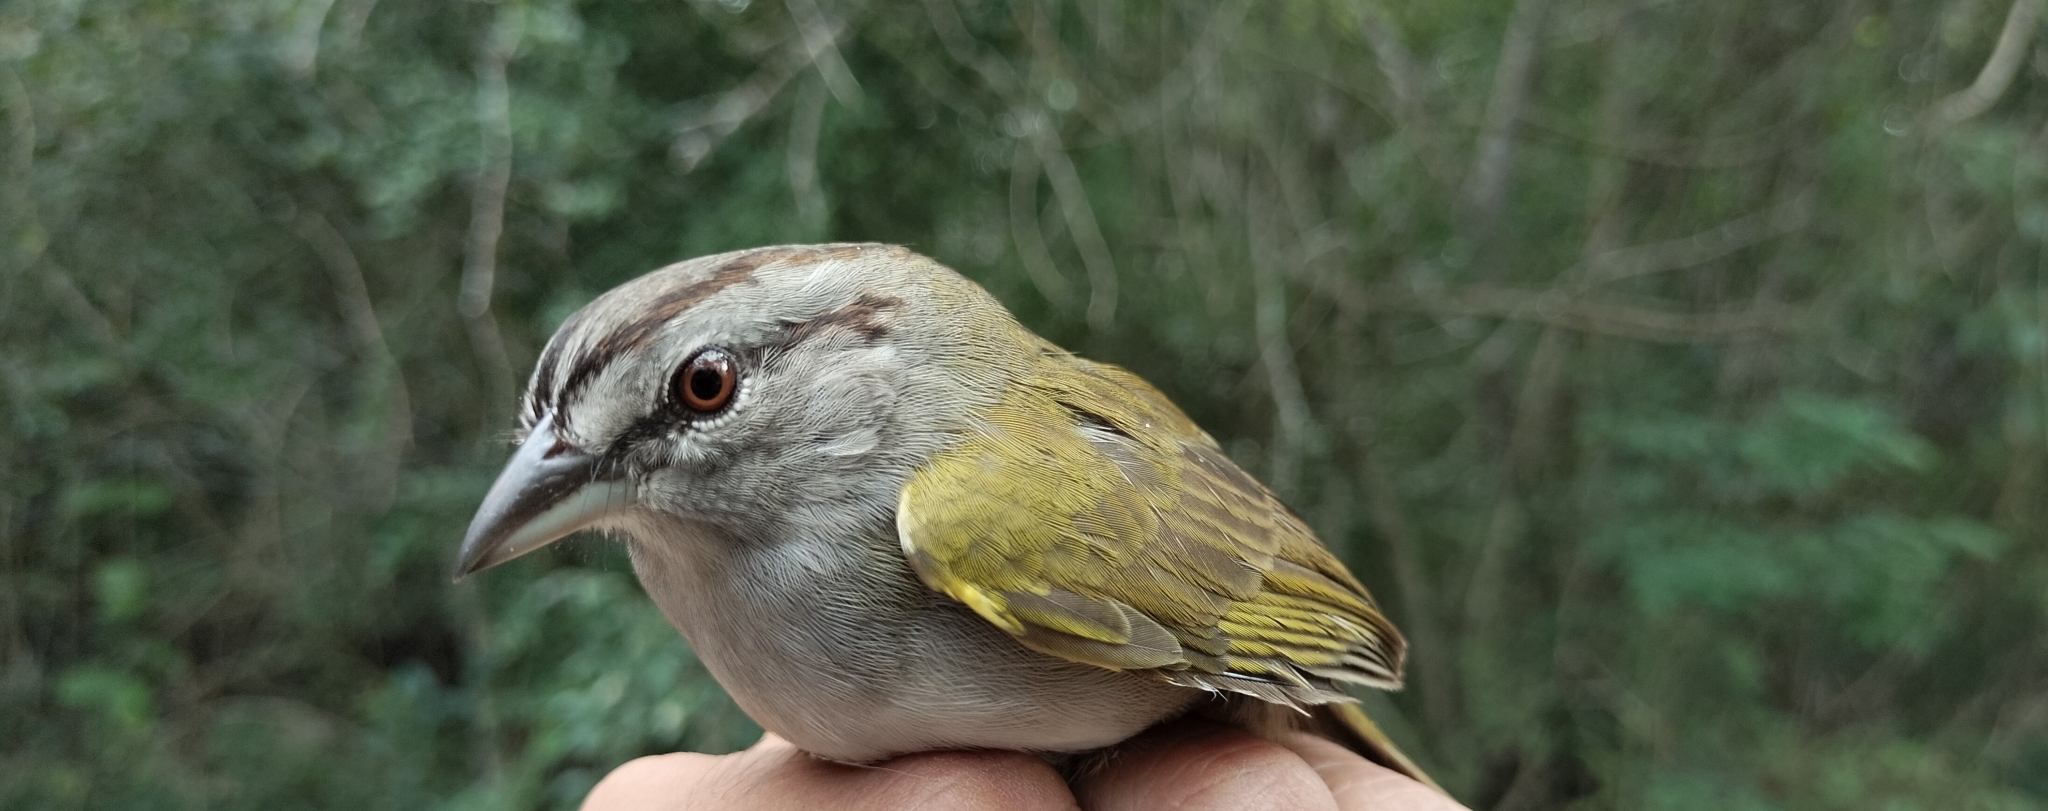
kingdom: Animalia
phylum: Chordata
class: Aves
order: Passeriformes
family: Passerellidae
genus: Arremonops
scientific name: Arremonops rufivirgatus
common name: Olive sparrow
